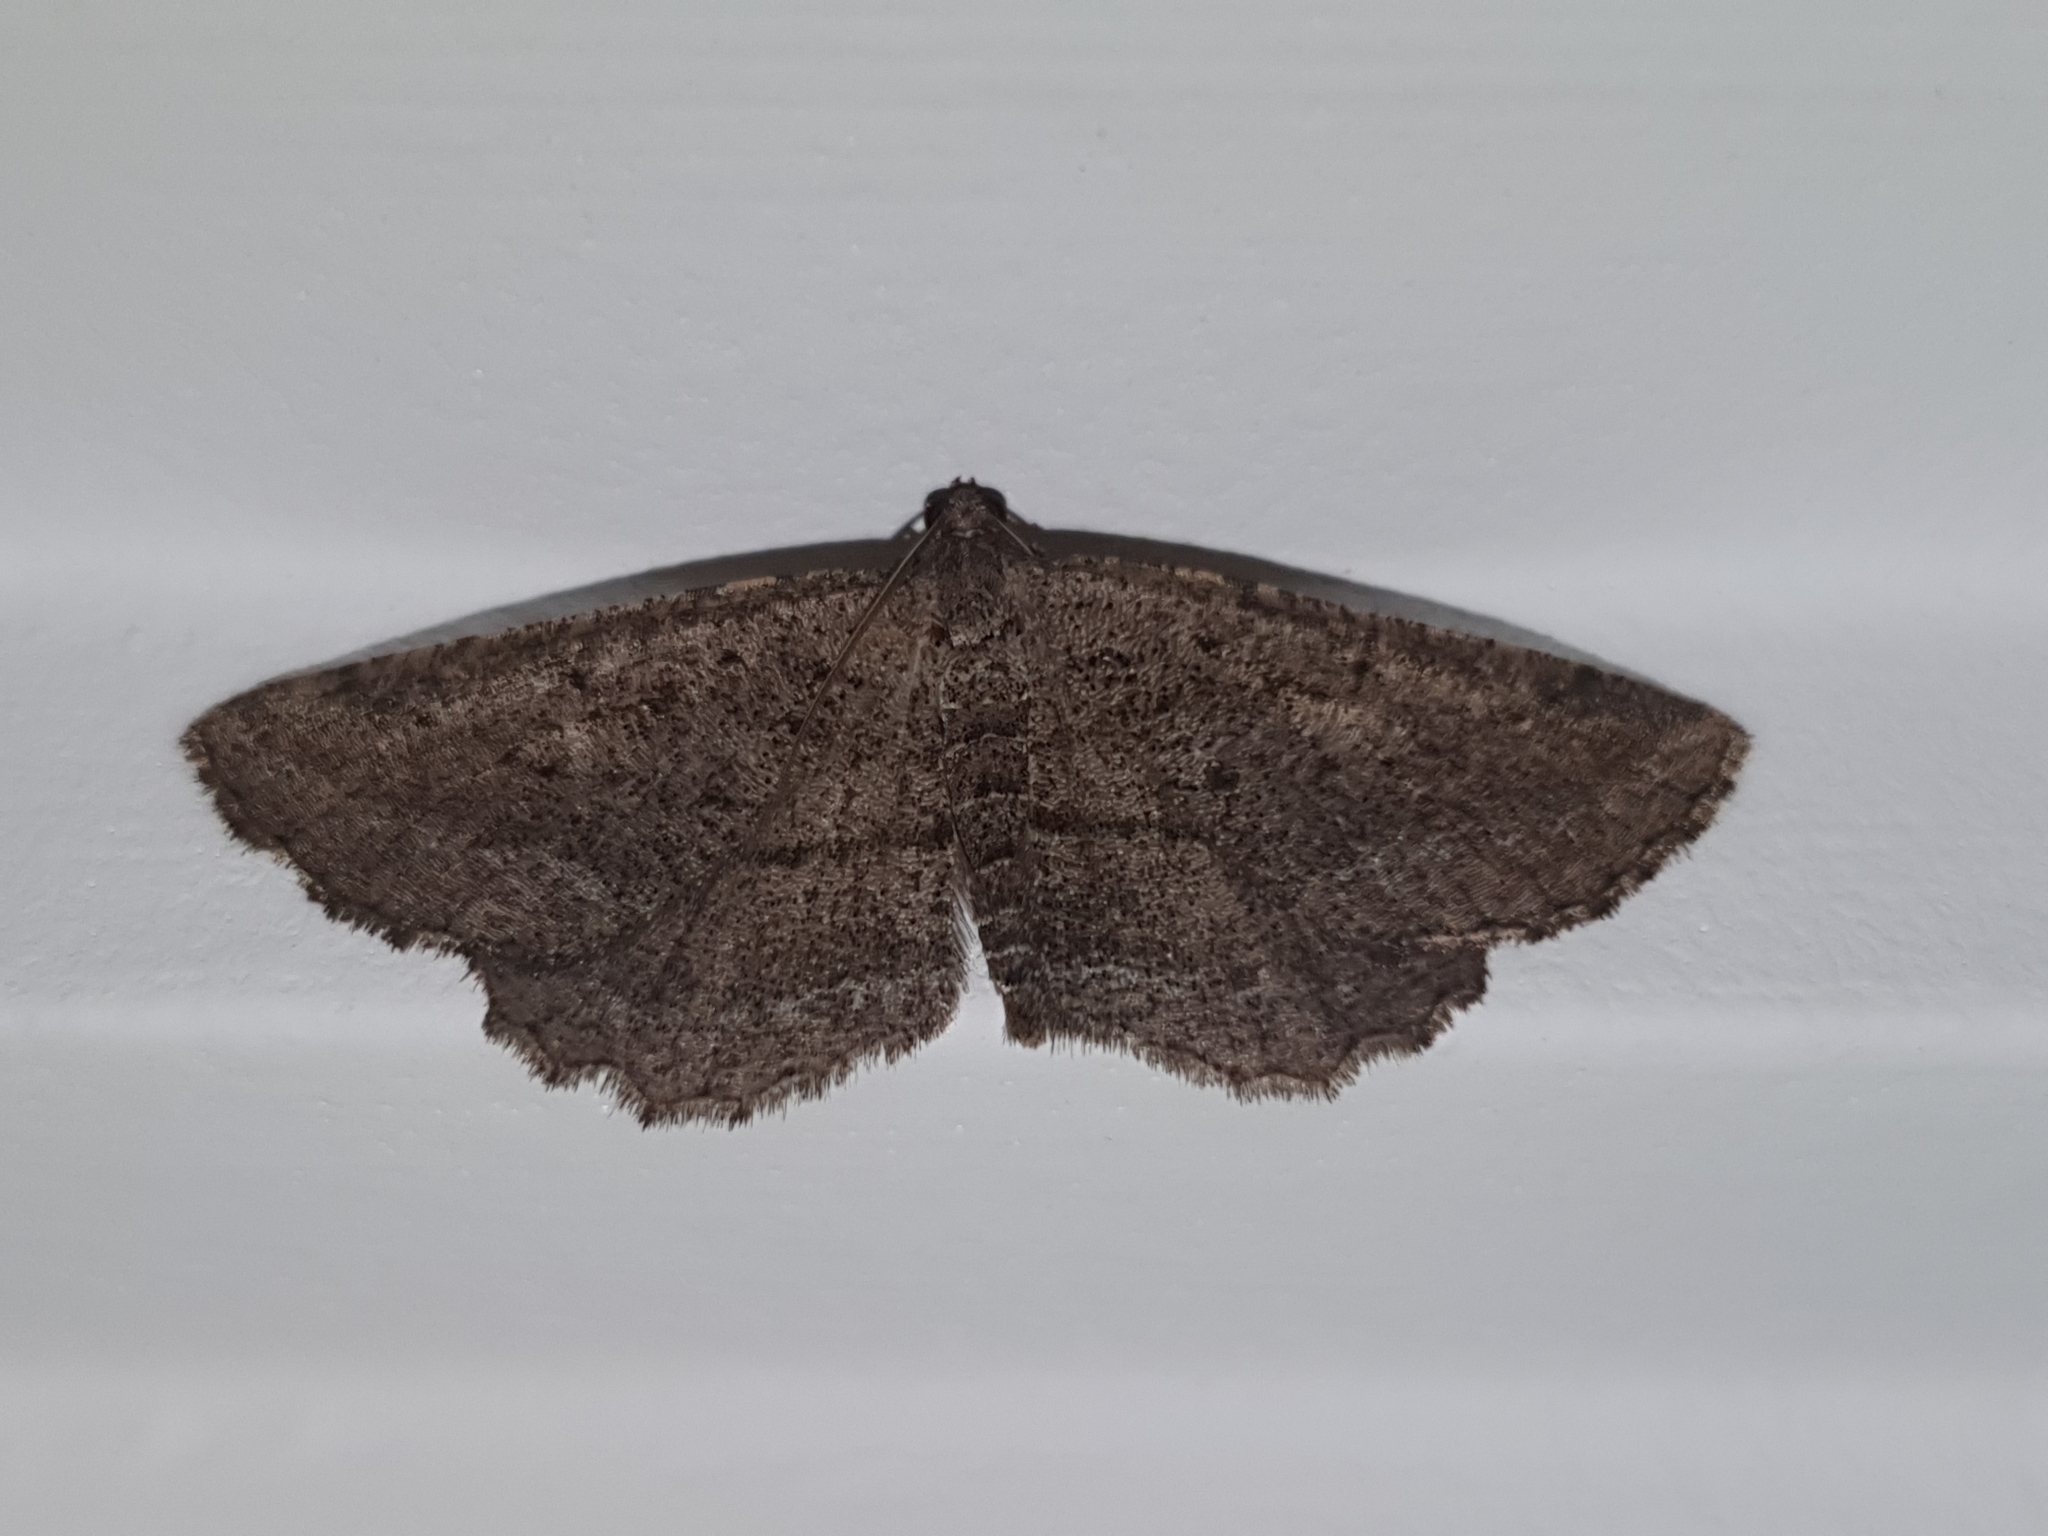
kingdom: Animalia
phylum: Arthropoda
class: Insecta
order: Lepidoptera
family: Geometridae
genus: Rhoptria
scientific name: Rhoptria asperaria
